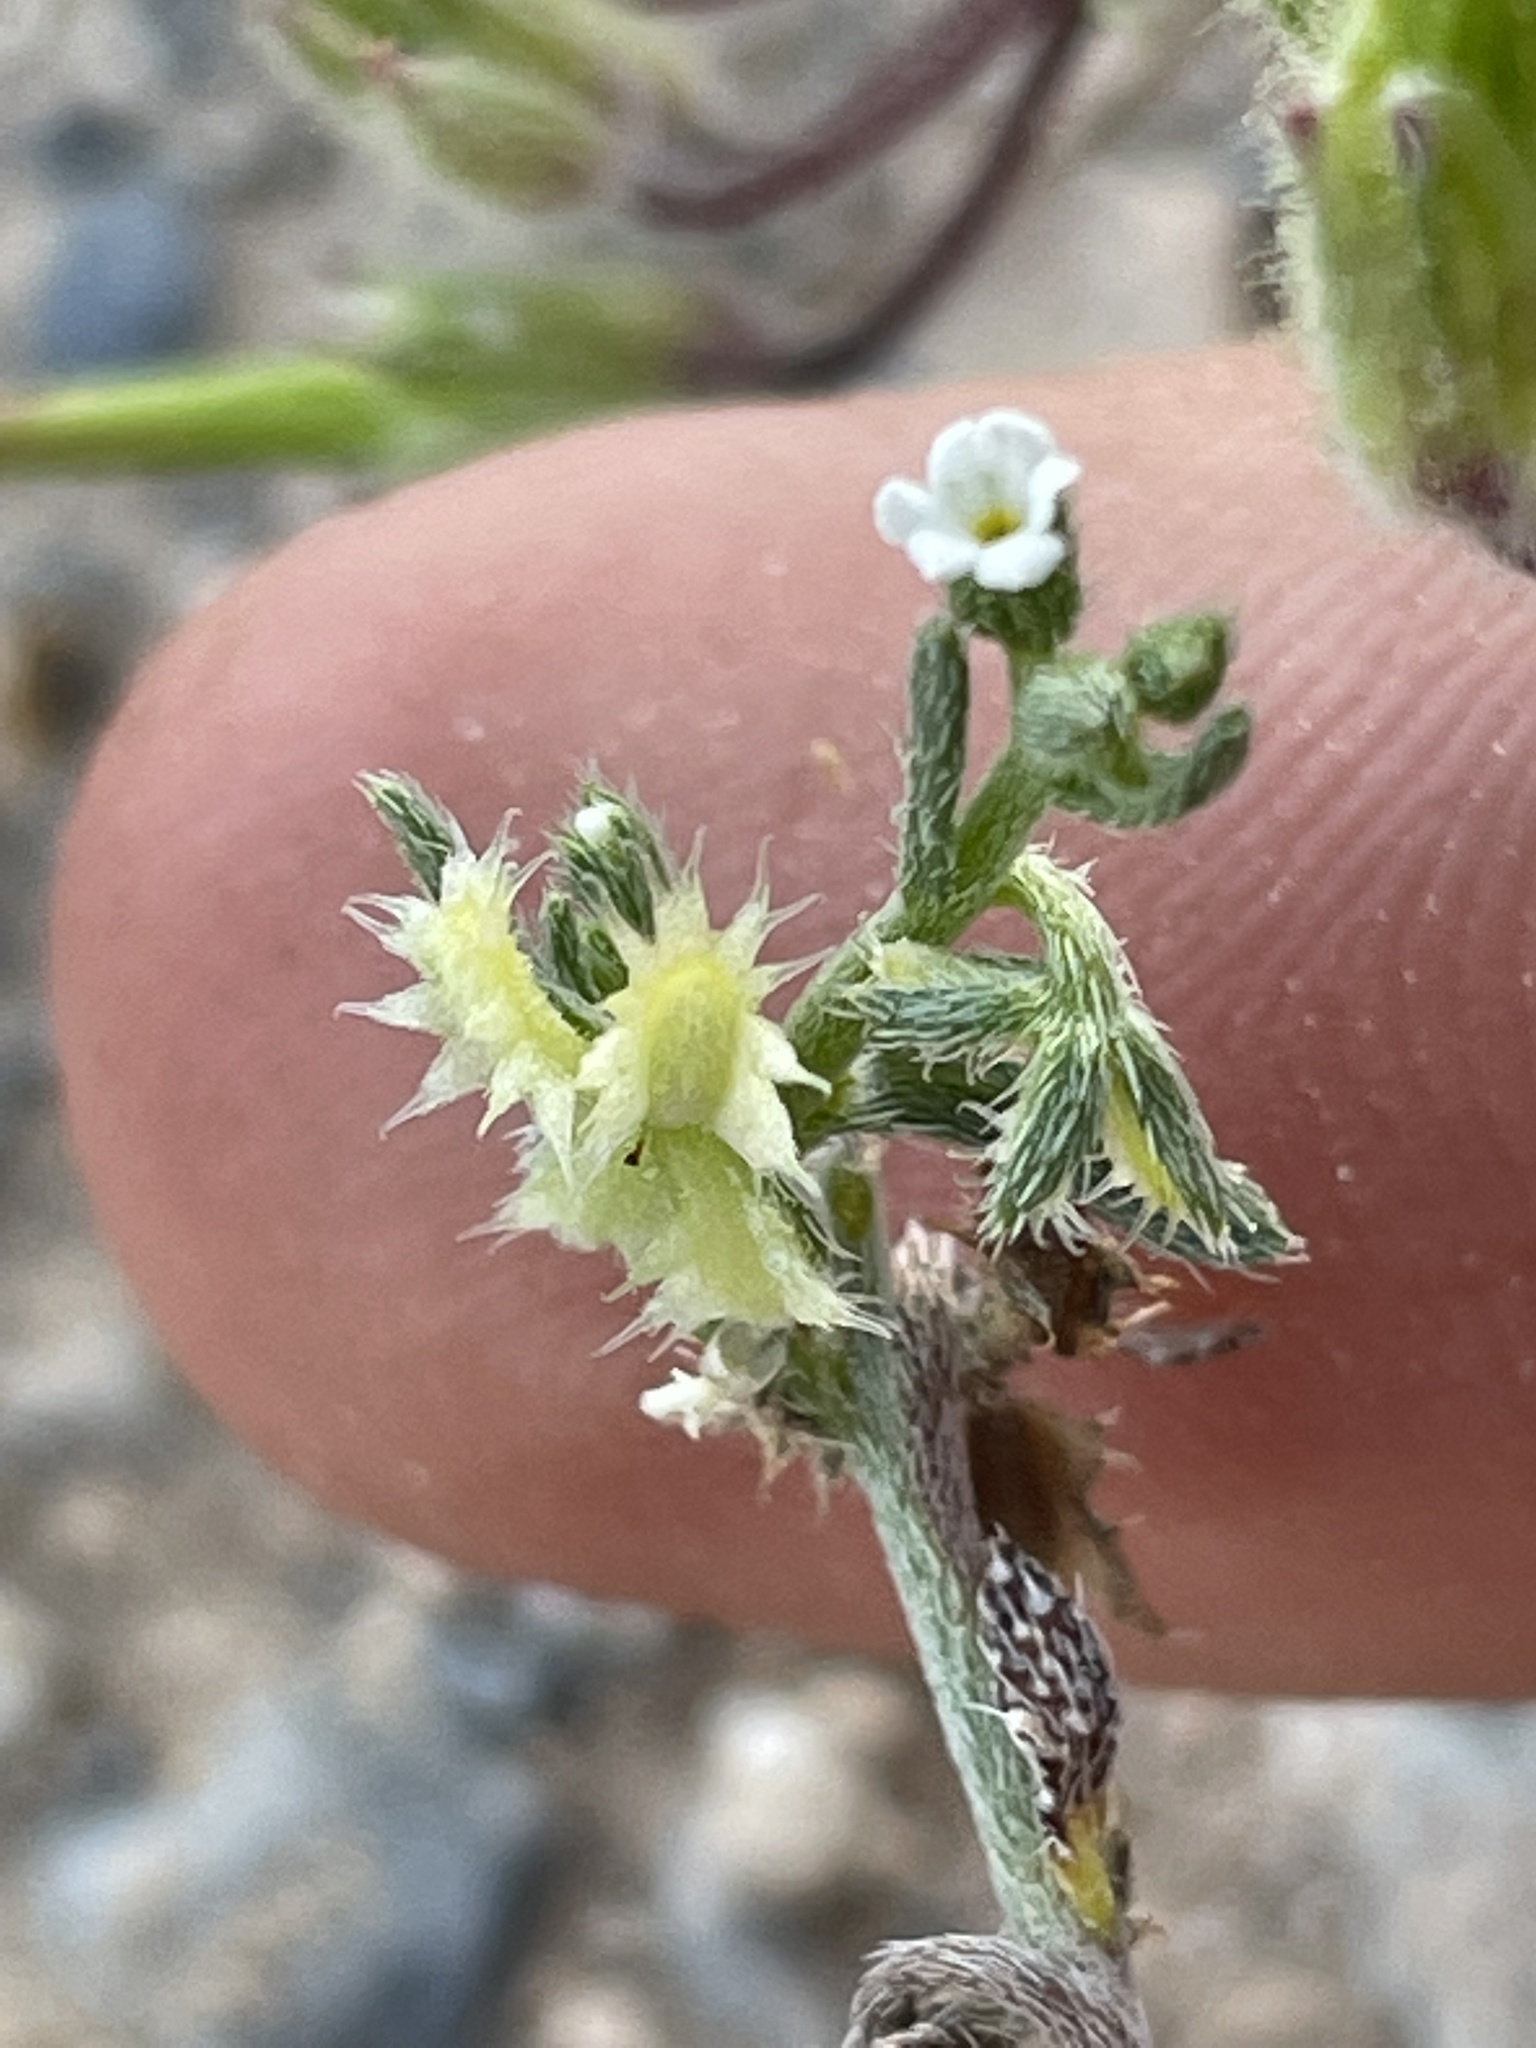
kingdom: Plantae
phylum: Tracheophyta
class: Magnoliopsida
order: Boraginales
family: Boraginaceae
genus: Pectocarya
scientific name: Pectocarya platycarpa
